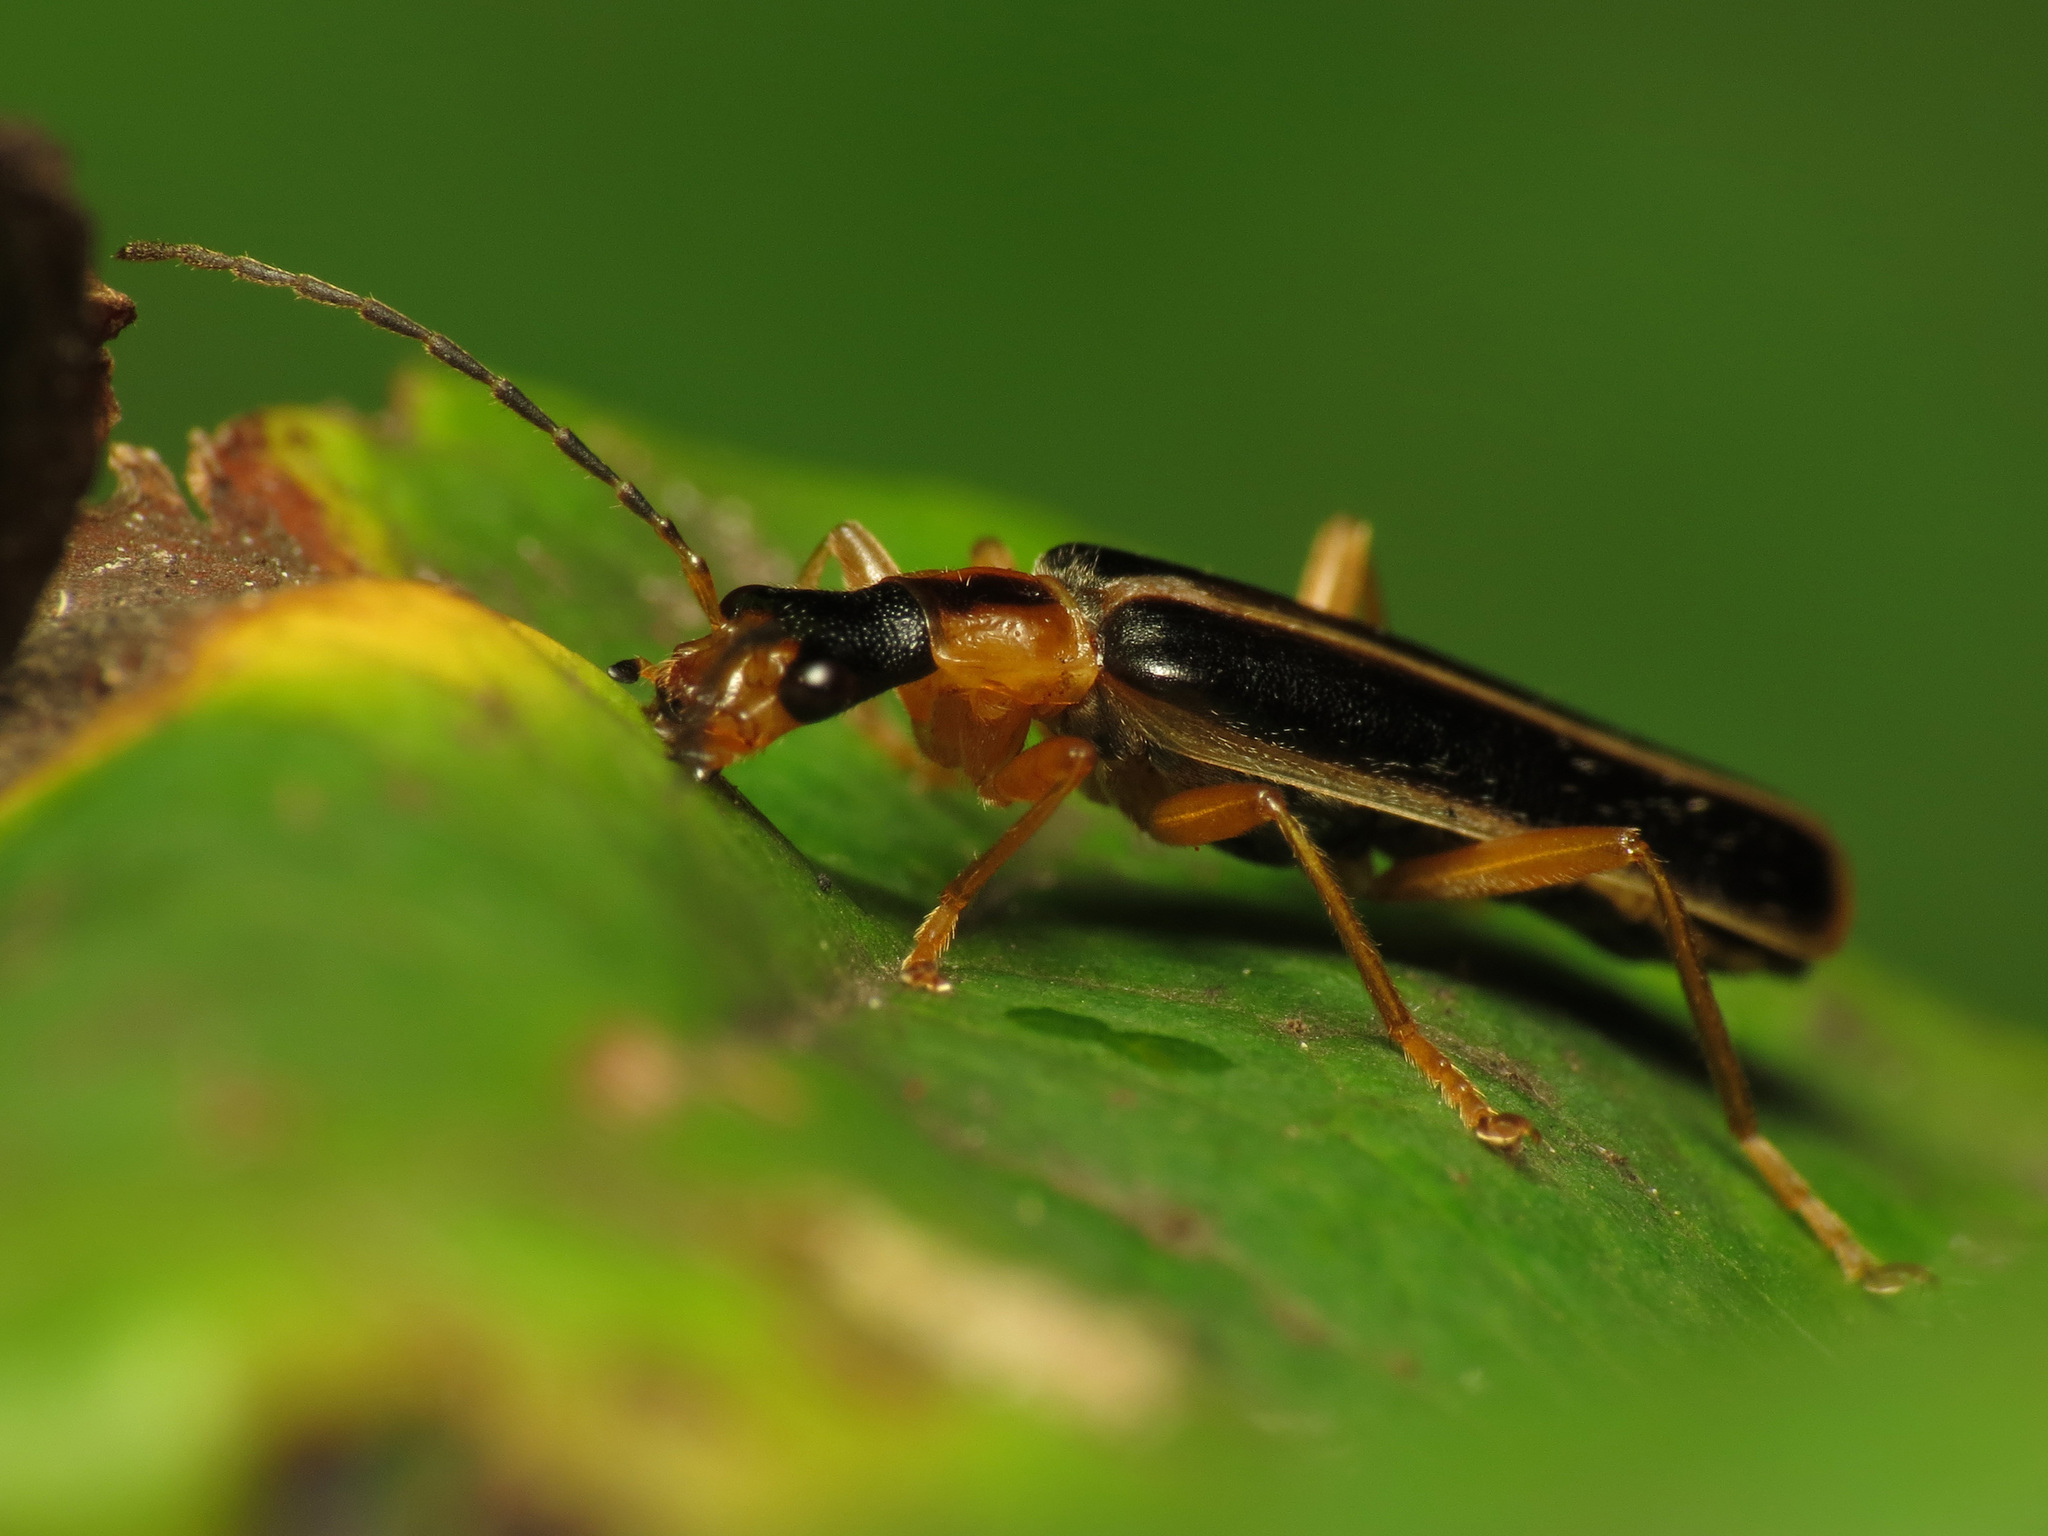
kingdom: Animalia
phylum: Arthropoda
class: Insecta
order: Coleoptera
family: Cantharidae
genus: Podabrus
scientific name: Podabrus brunnicollis
